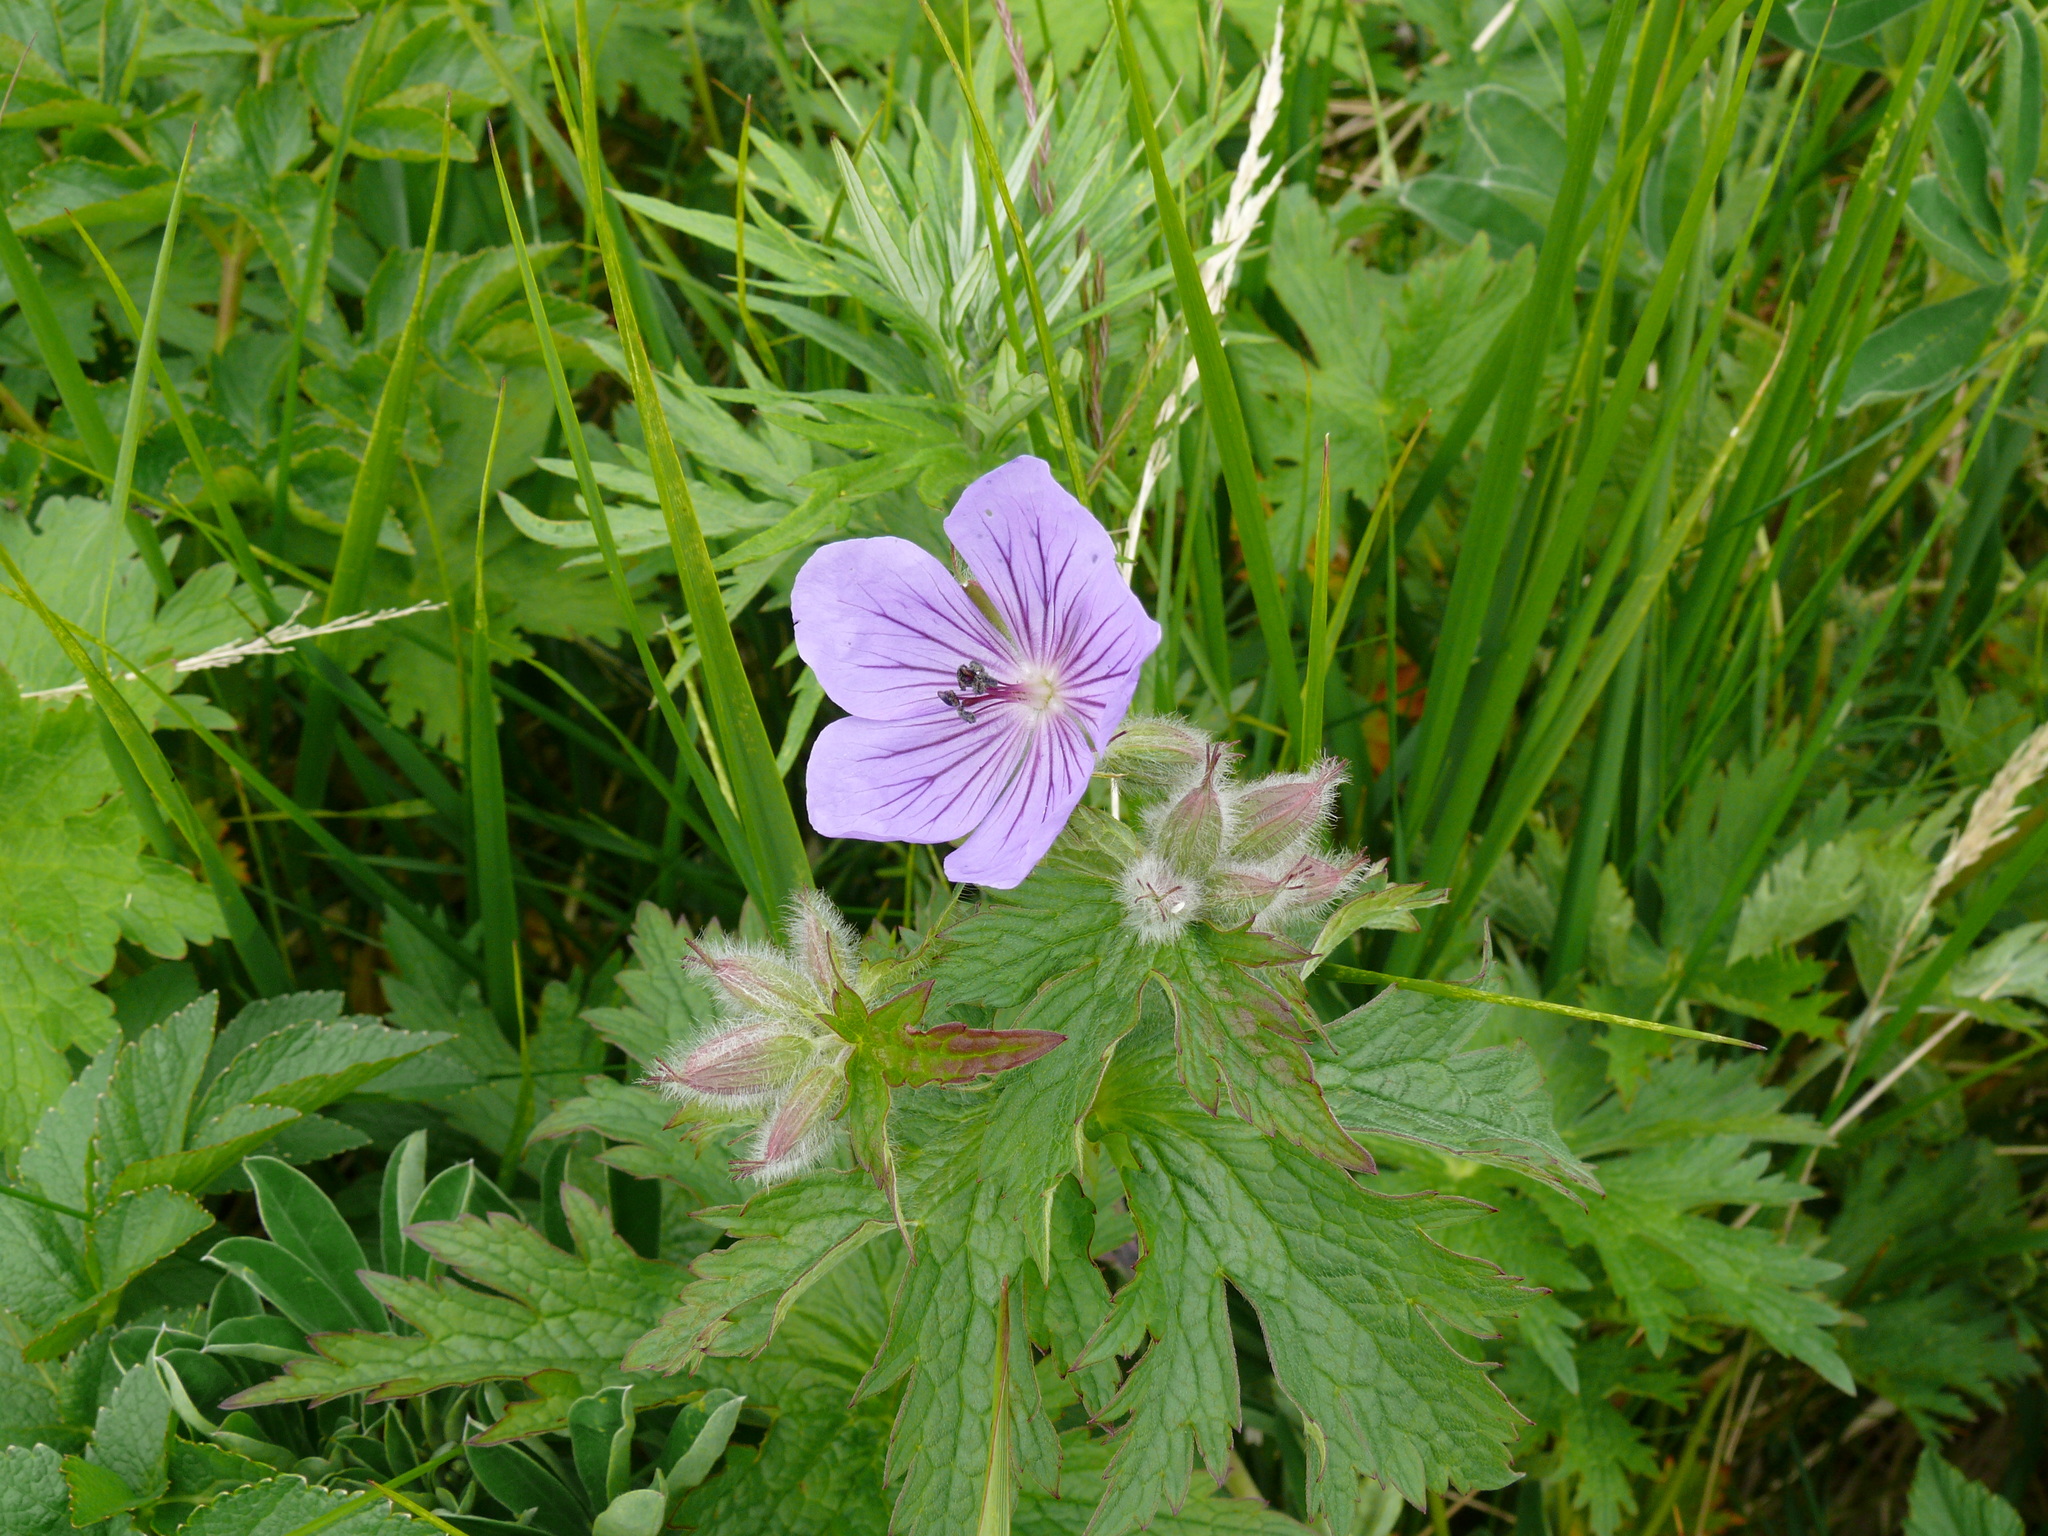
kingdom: Plantae
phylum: Tracheophyta
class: Magnoliopsida
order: Geraniales
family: Geraniaceae
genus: Geranium
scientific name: Geranium erianthum
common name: Northern crane's-bill
